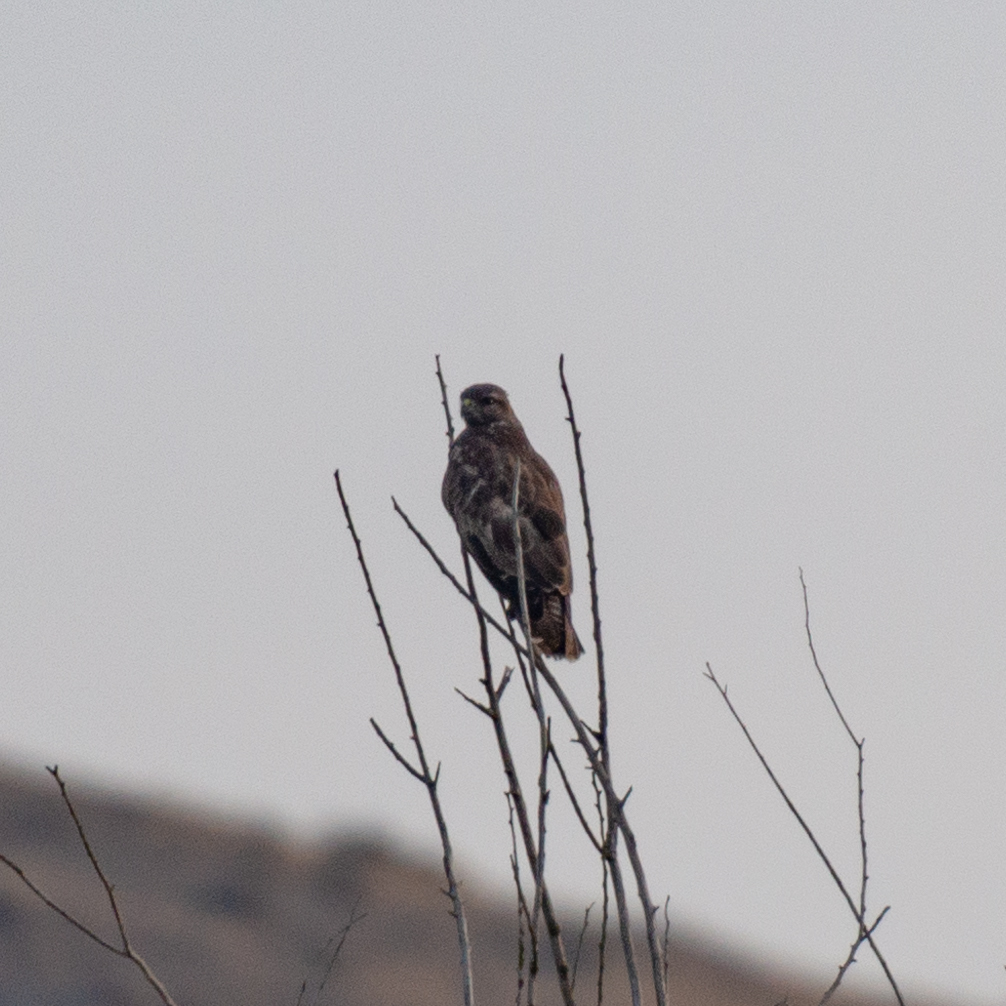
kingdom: Animalia
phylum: Chordata
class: Aves
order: Accipitriformes
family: Accipitridae
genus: Buteo
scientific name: Buteo buteo
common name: Common buzzard
